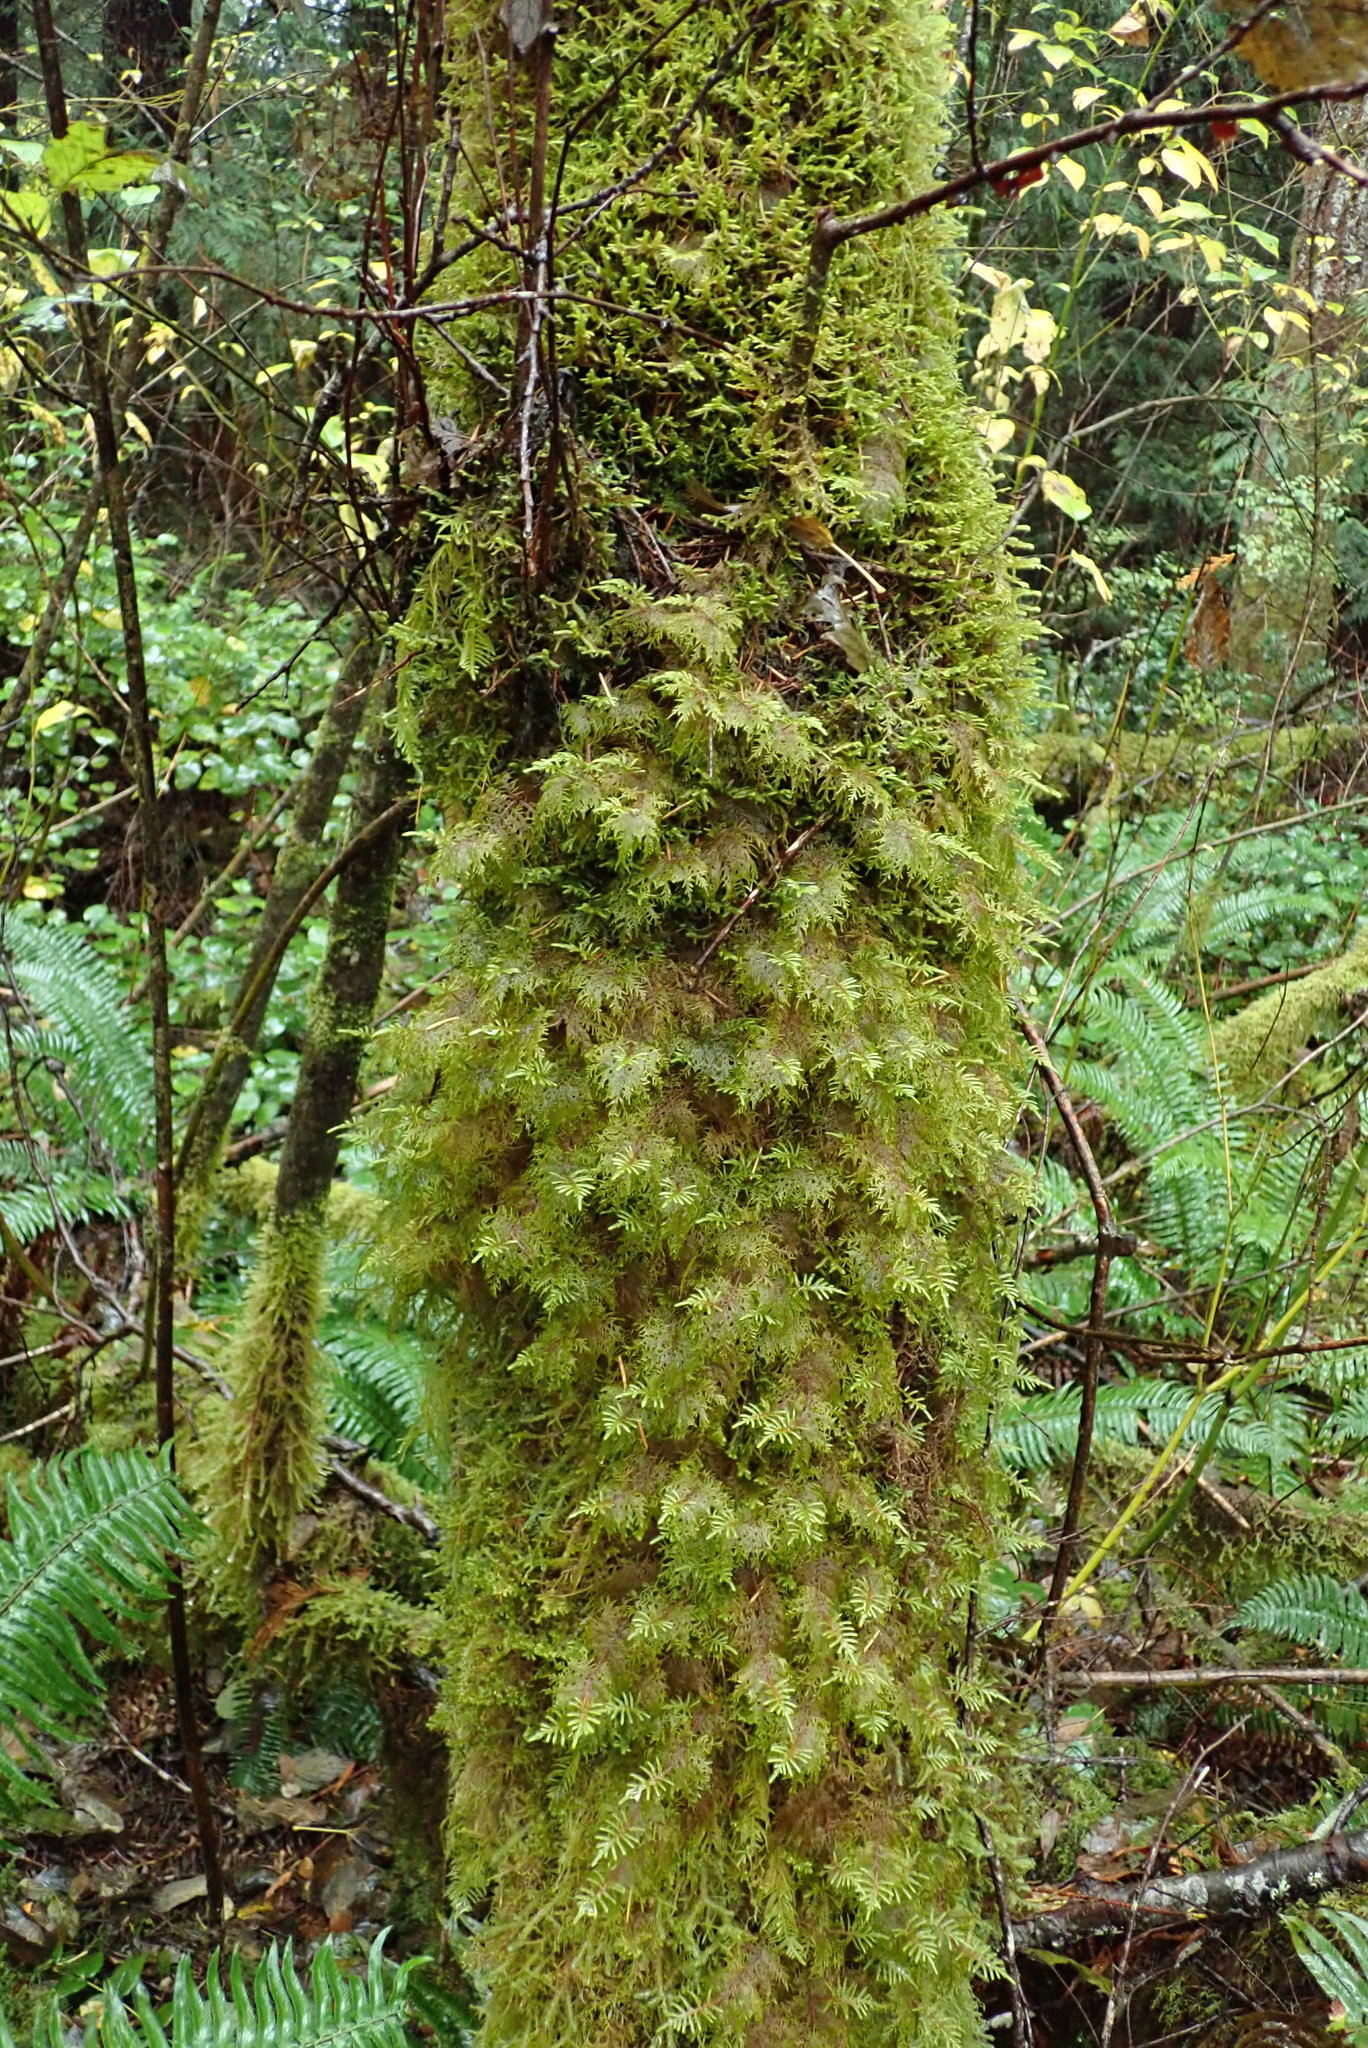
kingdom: Plantae
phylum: Bryophyta
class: Bryopsida
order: Hypnales
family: Hylocomiaceae
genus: Hylocomium
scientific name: Hylocomium splendens
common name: Stairstep moss
